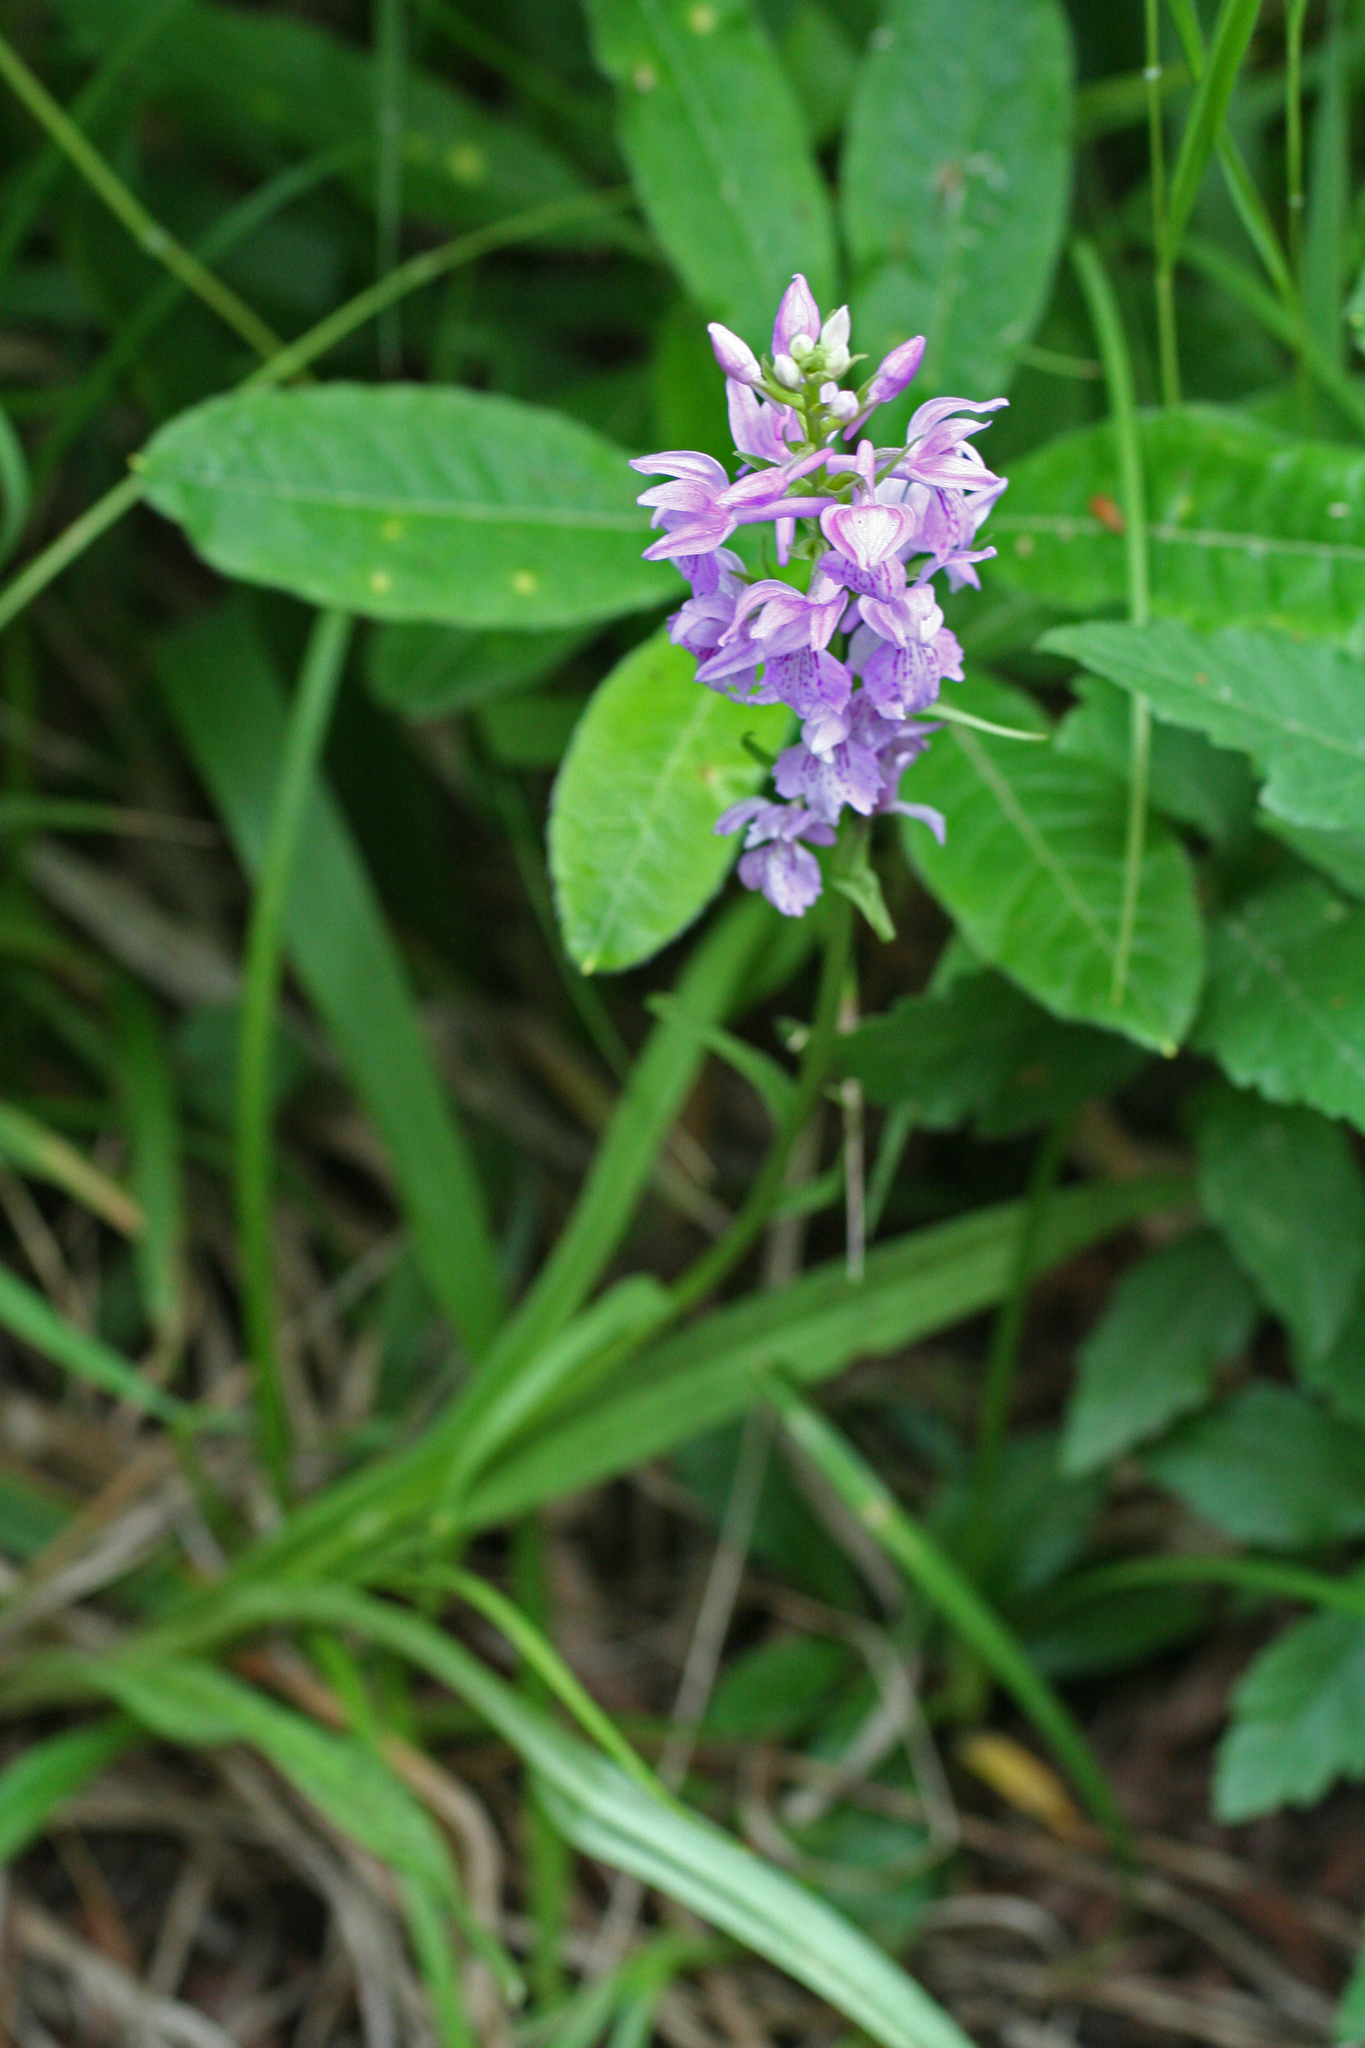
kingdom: Plantae
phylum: Tracheophyta
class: Liliopsida
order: Asparagales
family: Orchidaceae
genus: Dactylorhiza
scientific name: Dactylorhiza urvilleana
